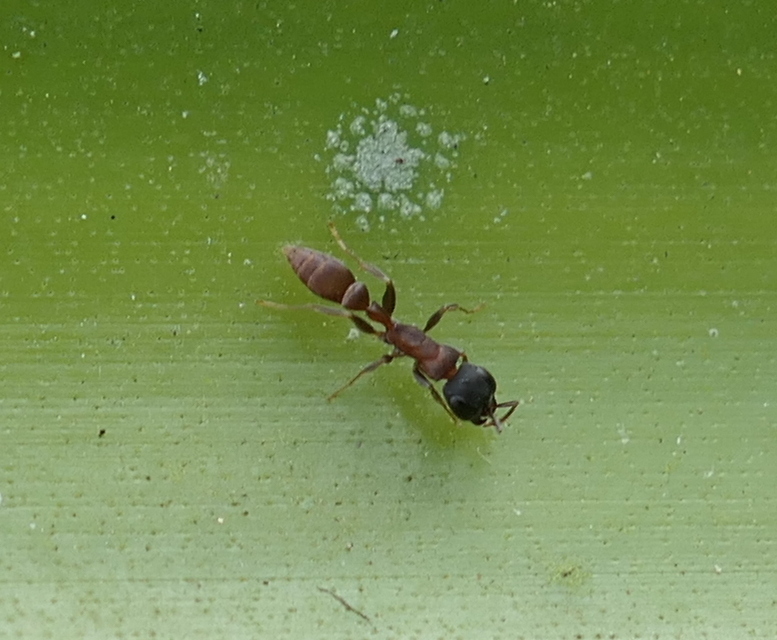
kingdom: Animalia
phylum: Arthropoda
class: Insecta
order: Hymenoptera
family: Formicidae
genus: Pseudomyrmex
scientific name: Pseudomyrmex tenuis
